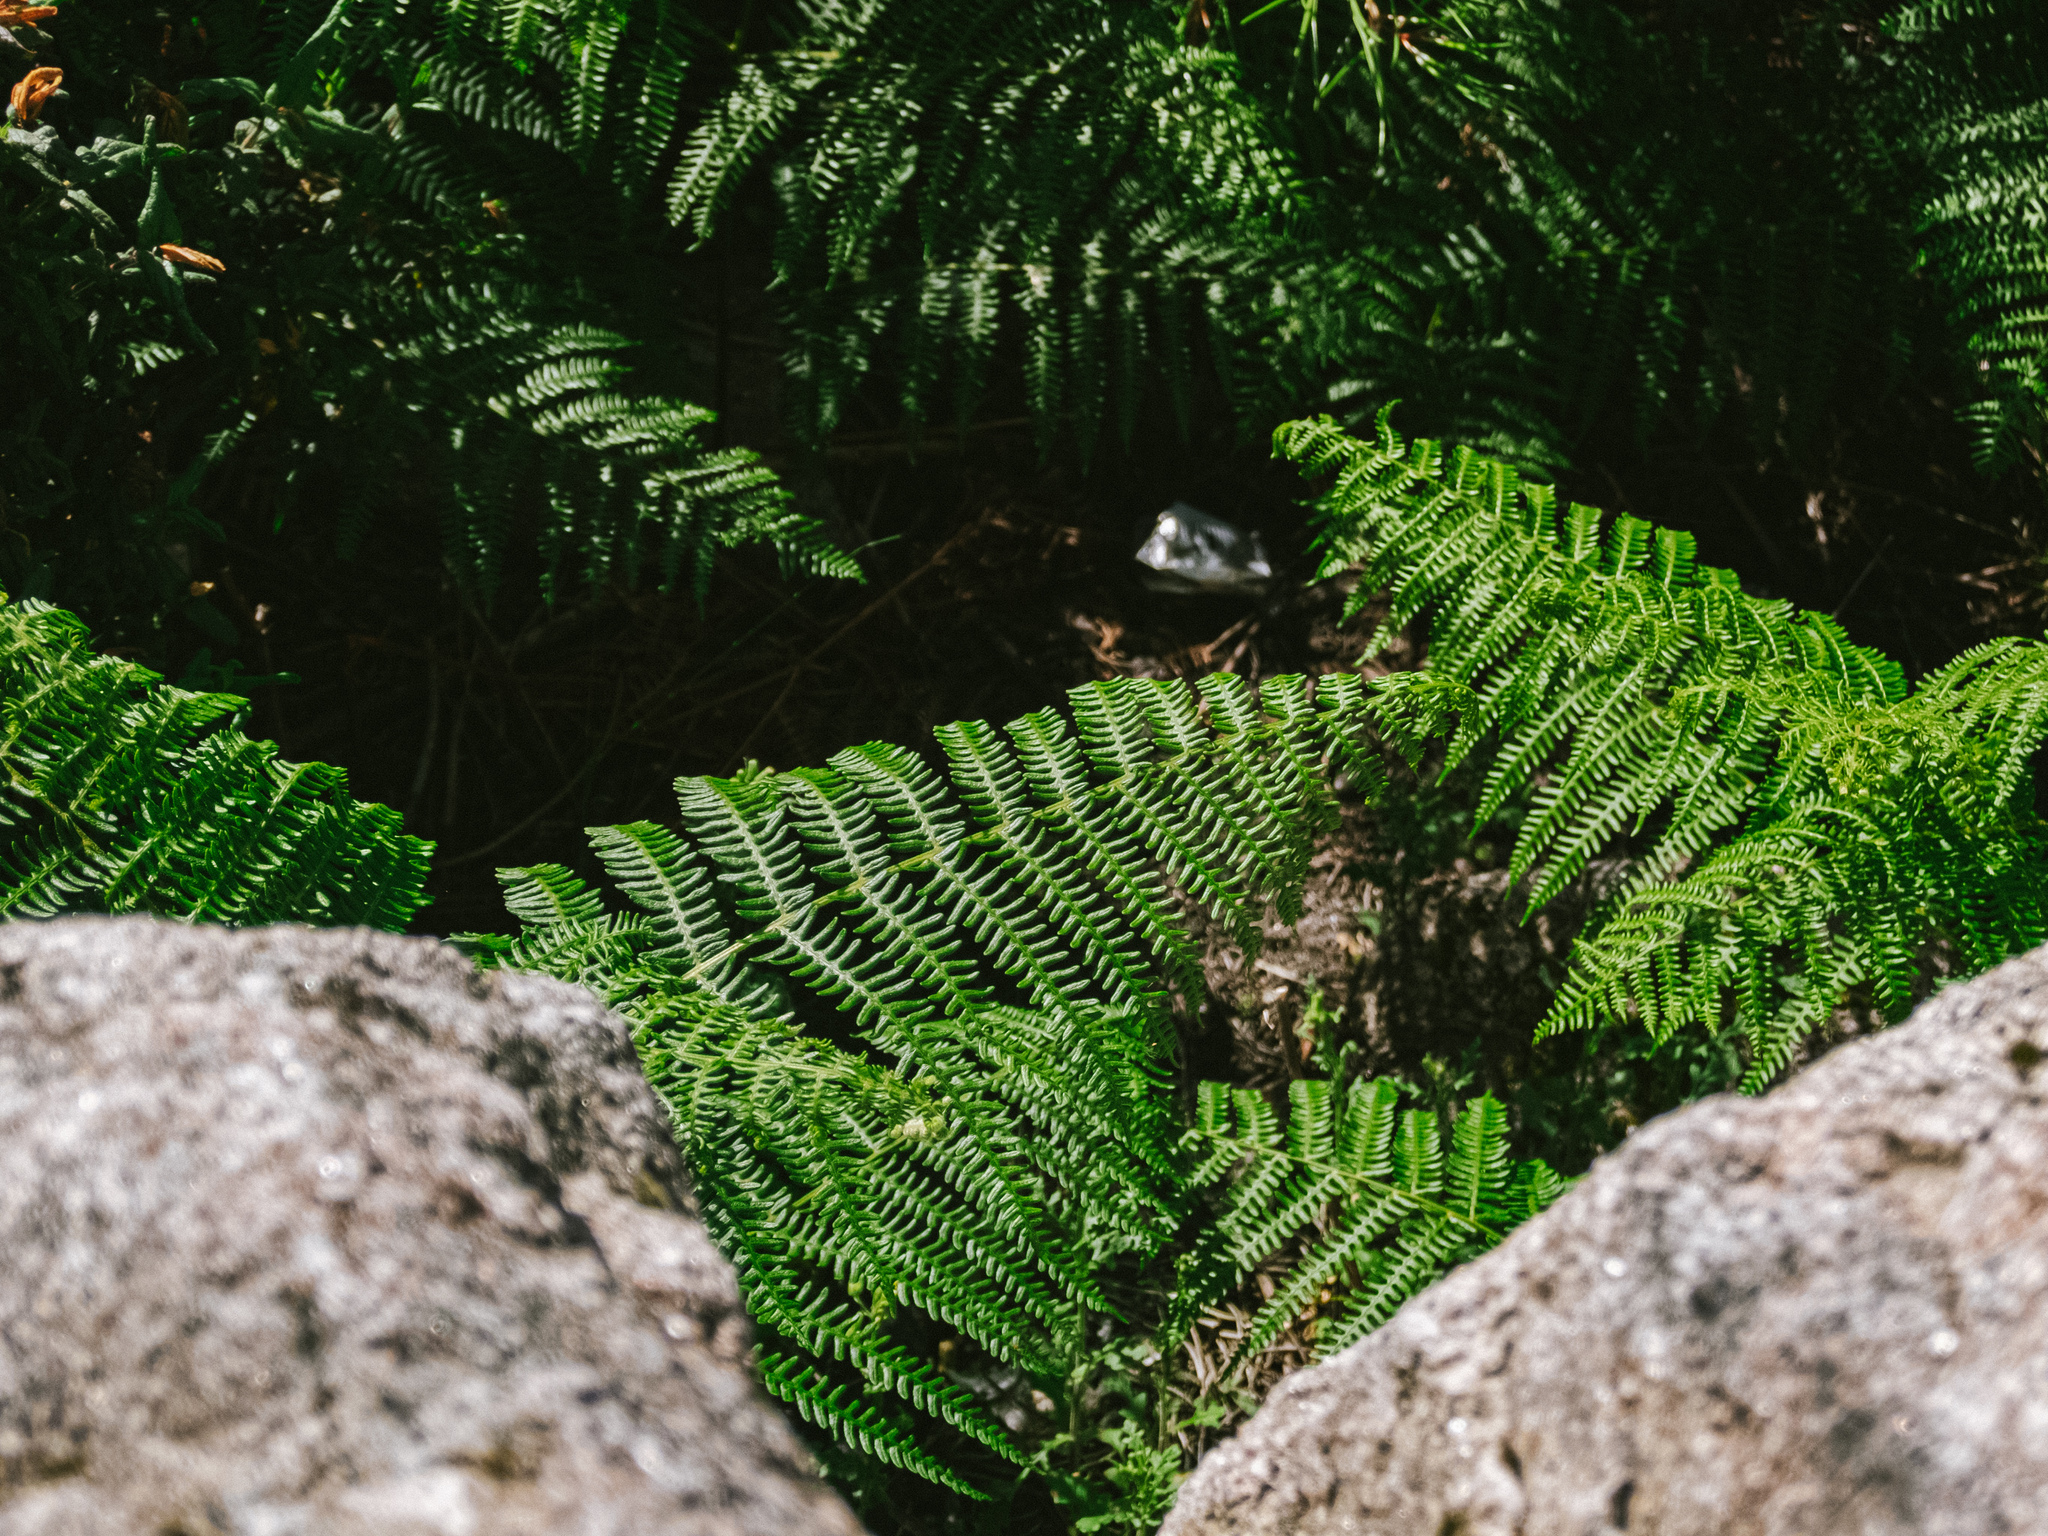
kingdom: Plantae
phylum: Tracheophyta
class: Polypodiopsida
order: Polypodiales
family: Dennstaedtiaceae
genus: Pteridium
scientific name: Pteridium aquilinum
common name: Bracken
